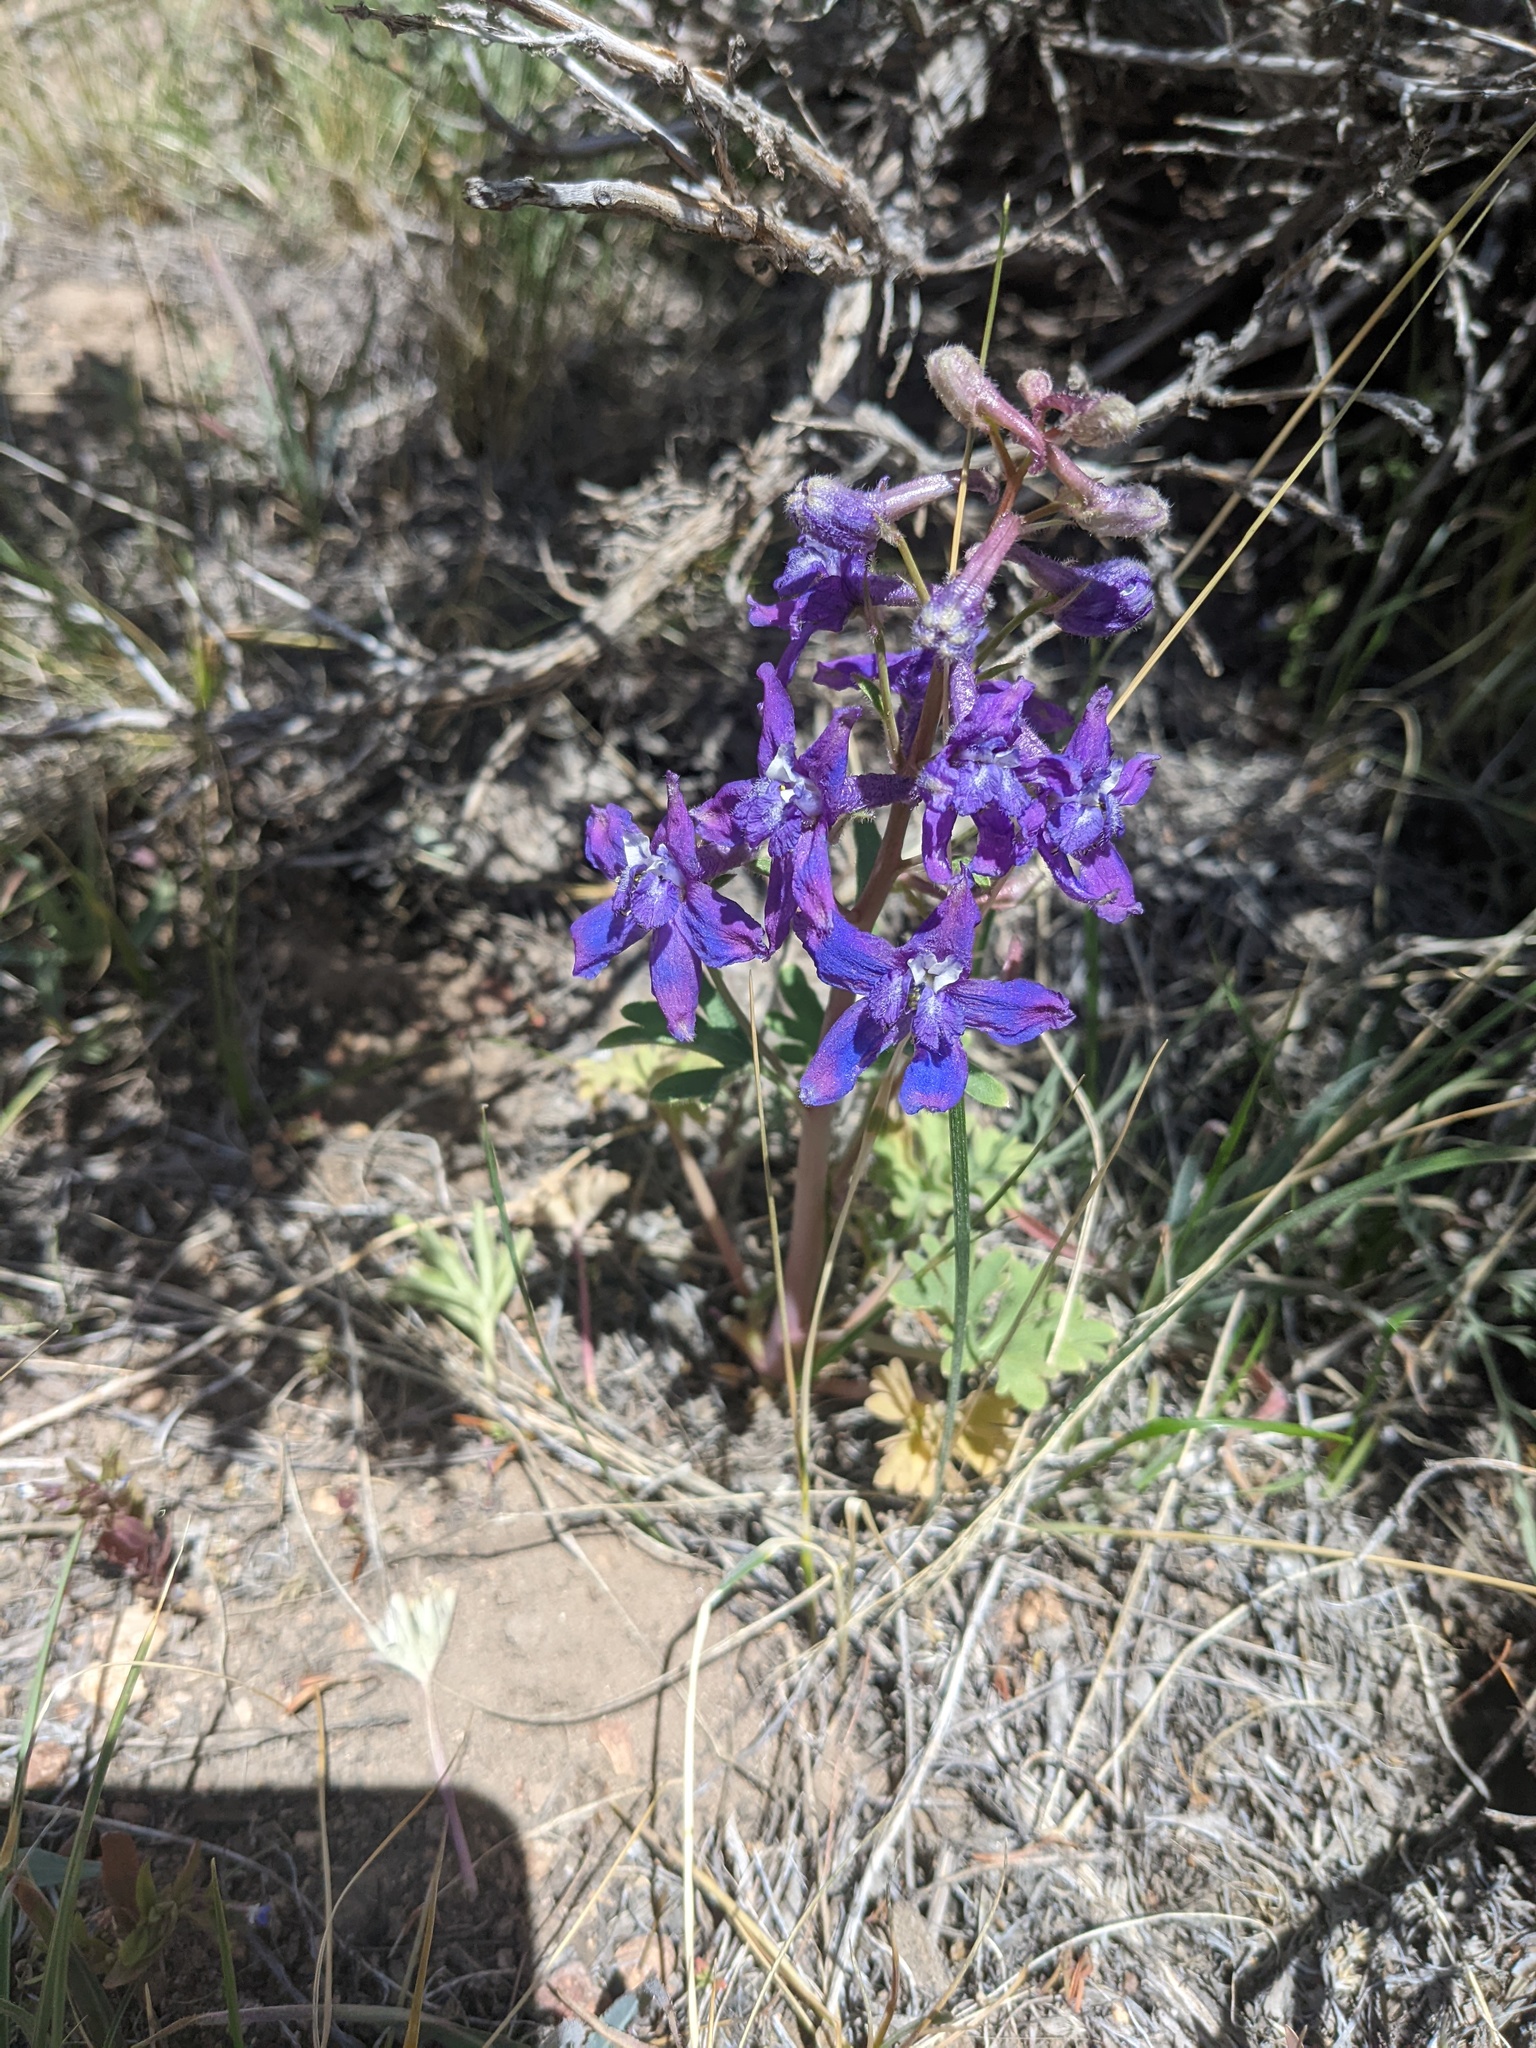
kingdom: Plantae
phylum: Tracheophyta
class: Magnoliopsida
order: Ranunculales
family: Ranunculaceae
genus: Delphinium
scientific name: Delphinium andersonii
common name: Anderson's larkspur
